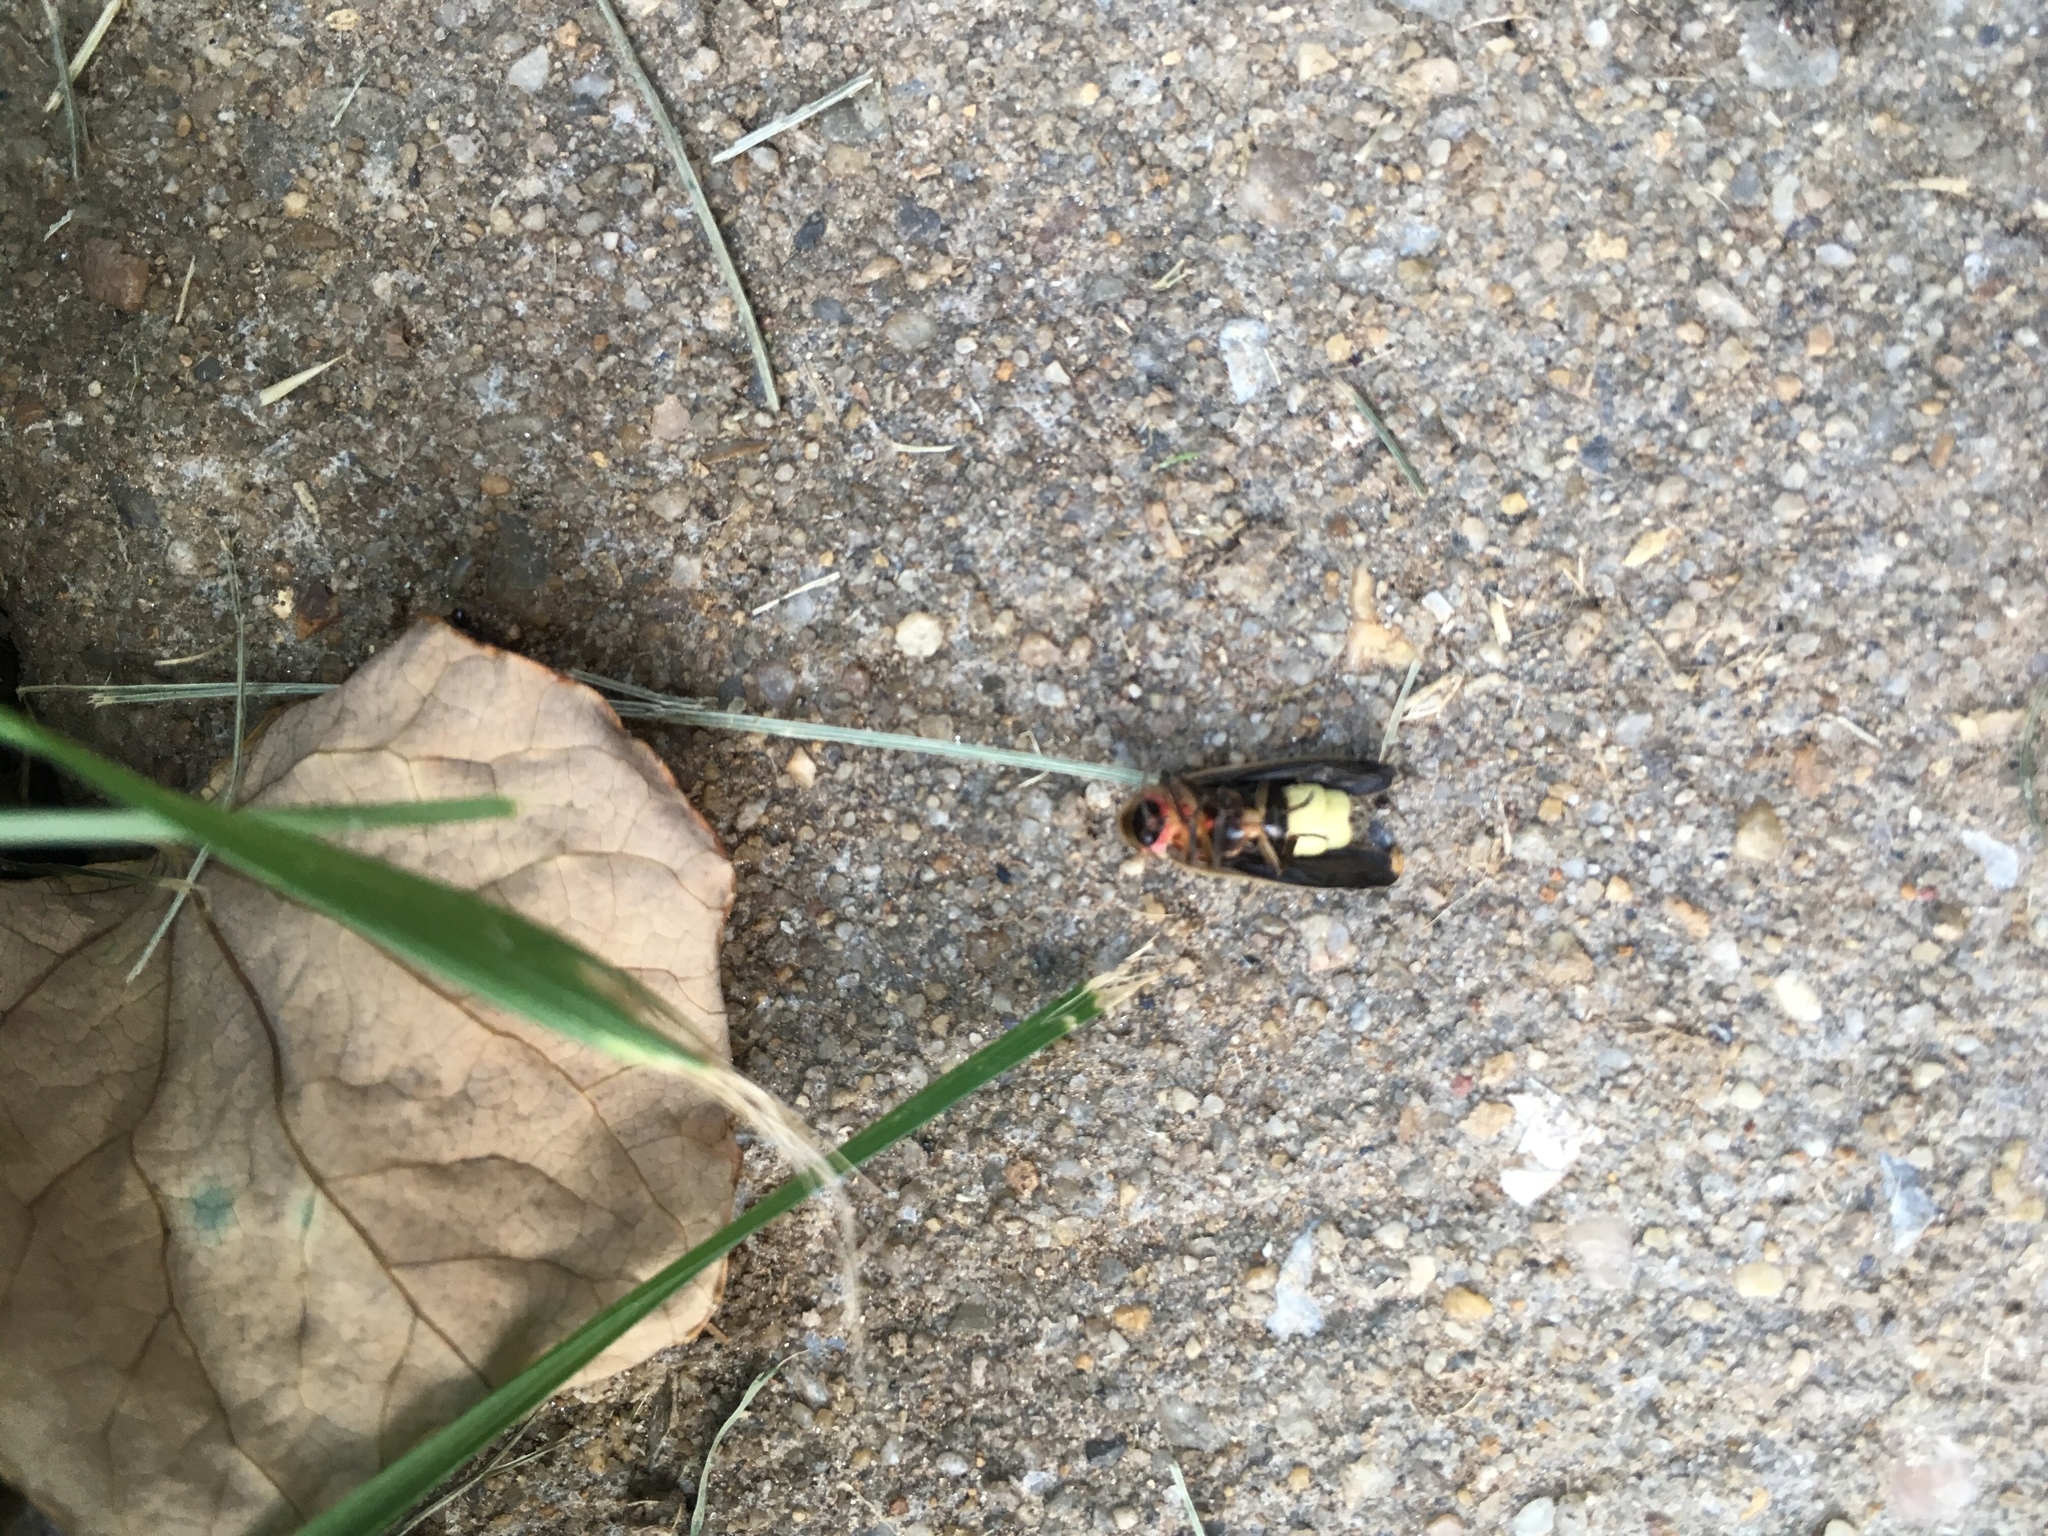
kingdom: Animalia
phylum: Arthropoda
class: Insecta
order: Coleoptera
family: Lampyridae
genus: Photinus
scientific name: Photinus pyralis
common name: Big dipper firefly
